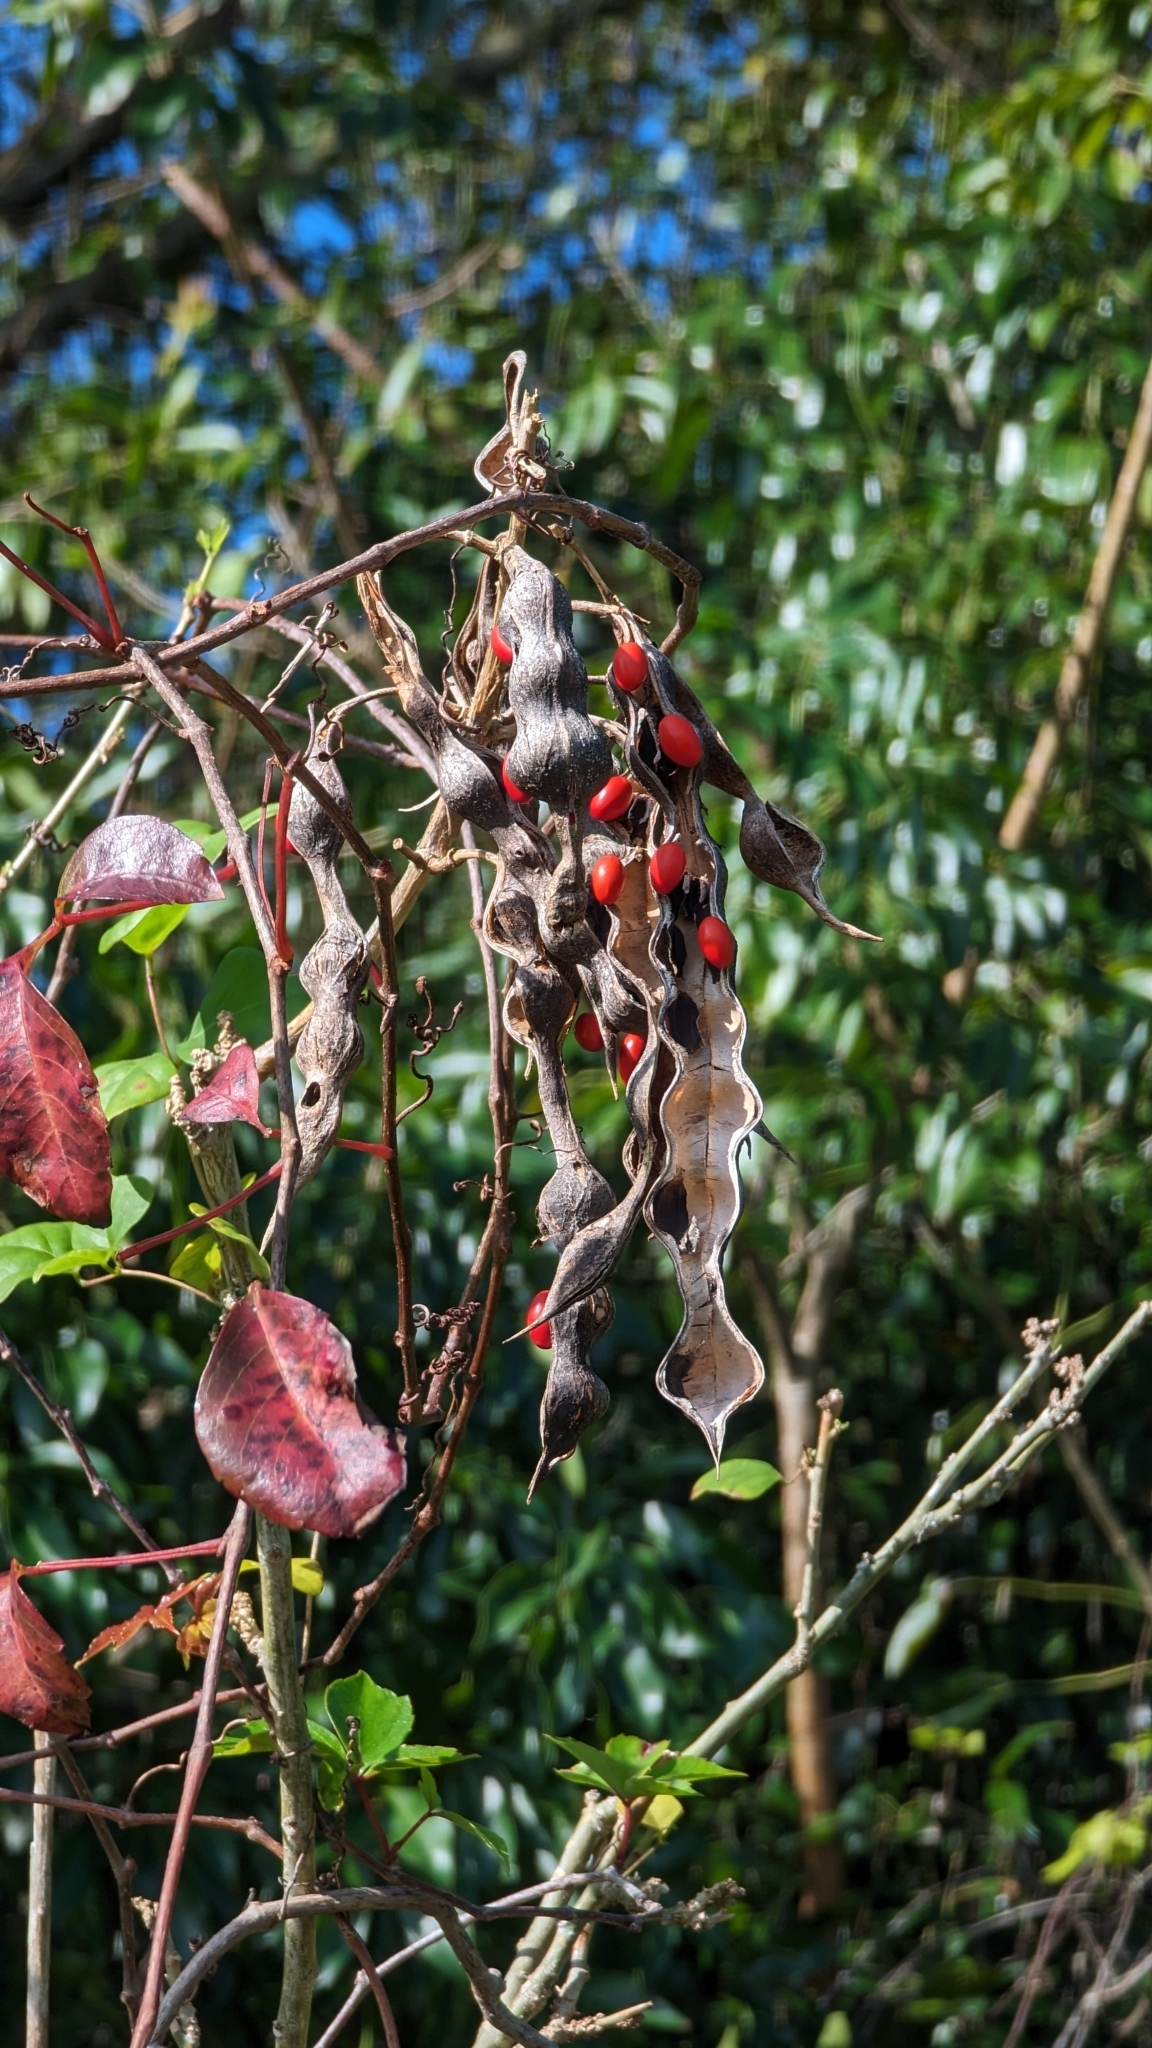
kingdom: Plantae
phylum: Tracheophyta
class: Magnoliopsida
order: Fabales
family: Fabaceae
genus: Erythrina
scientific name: Erythrina herbacea
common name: Coral-bean
